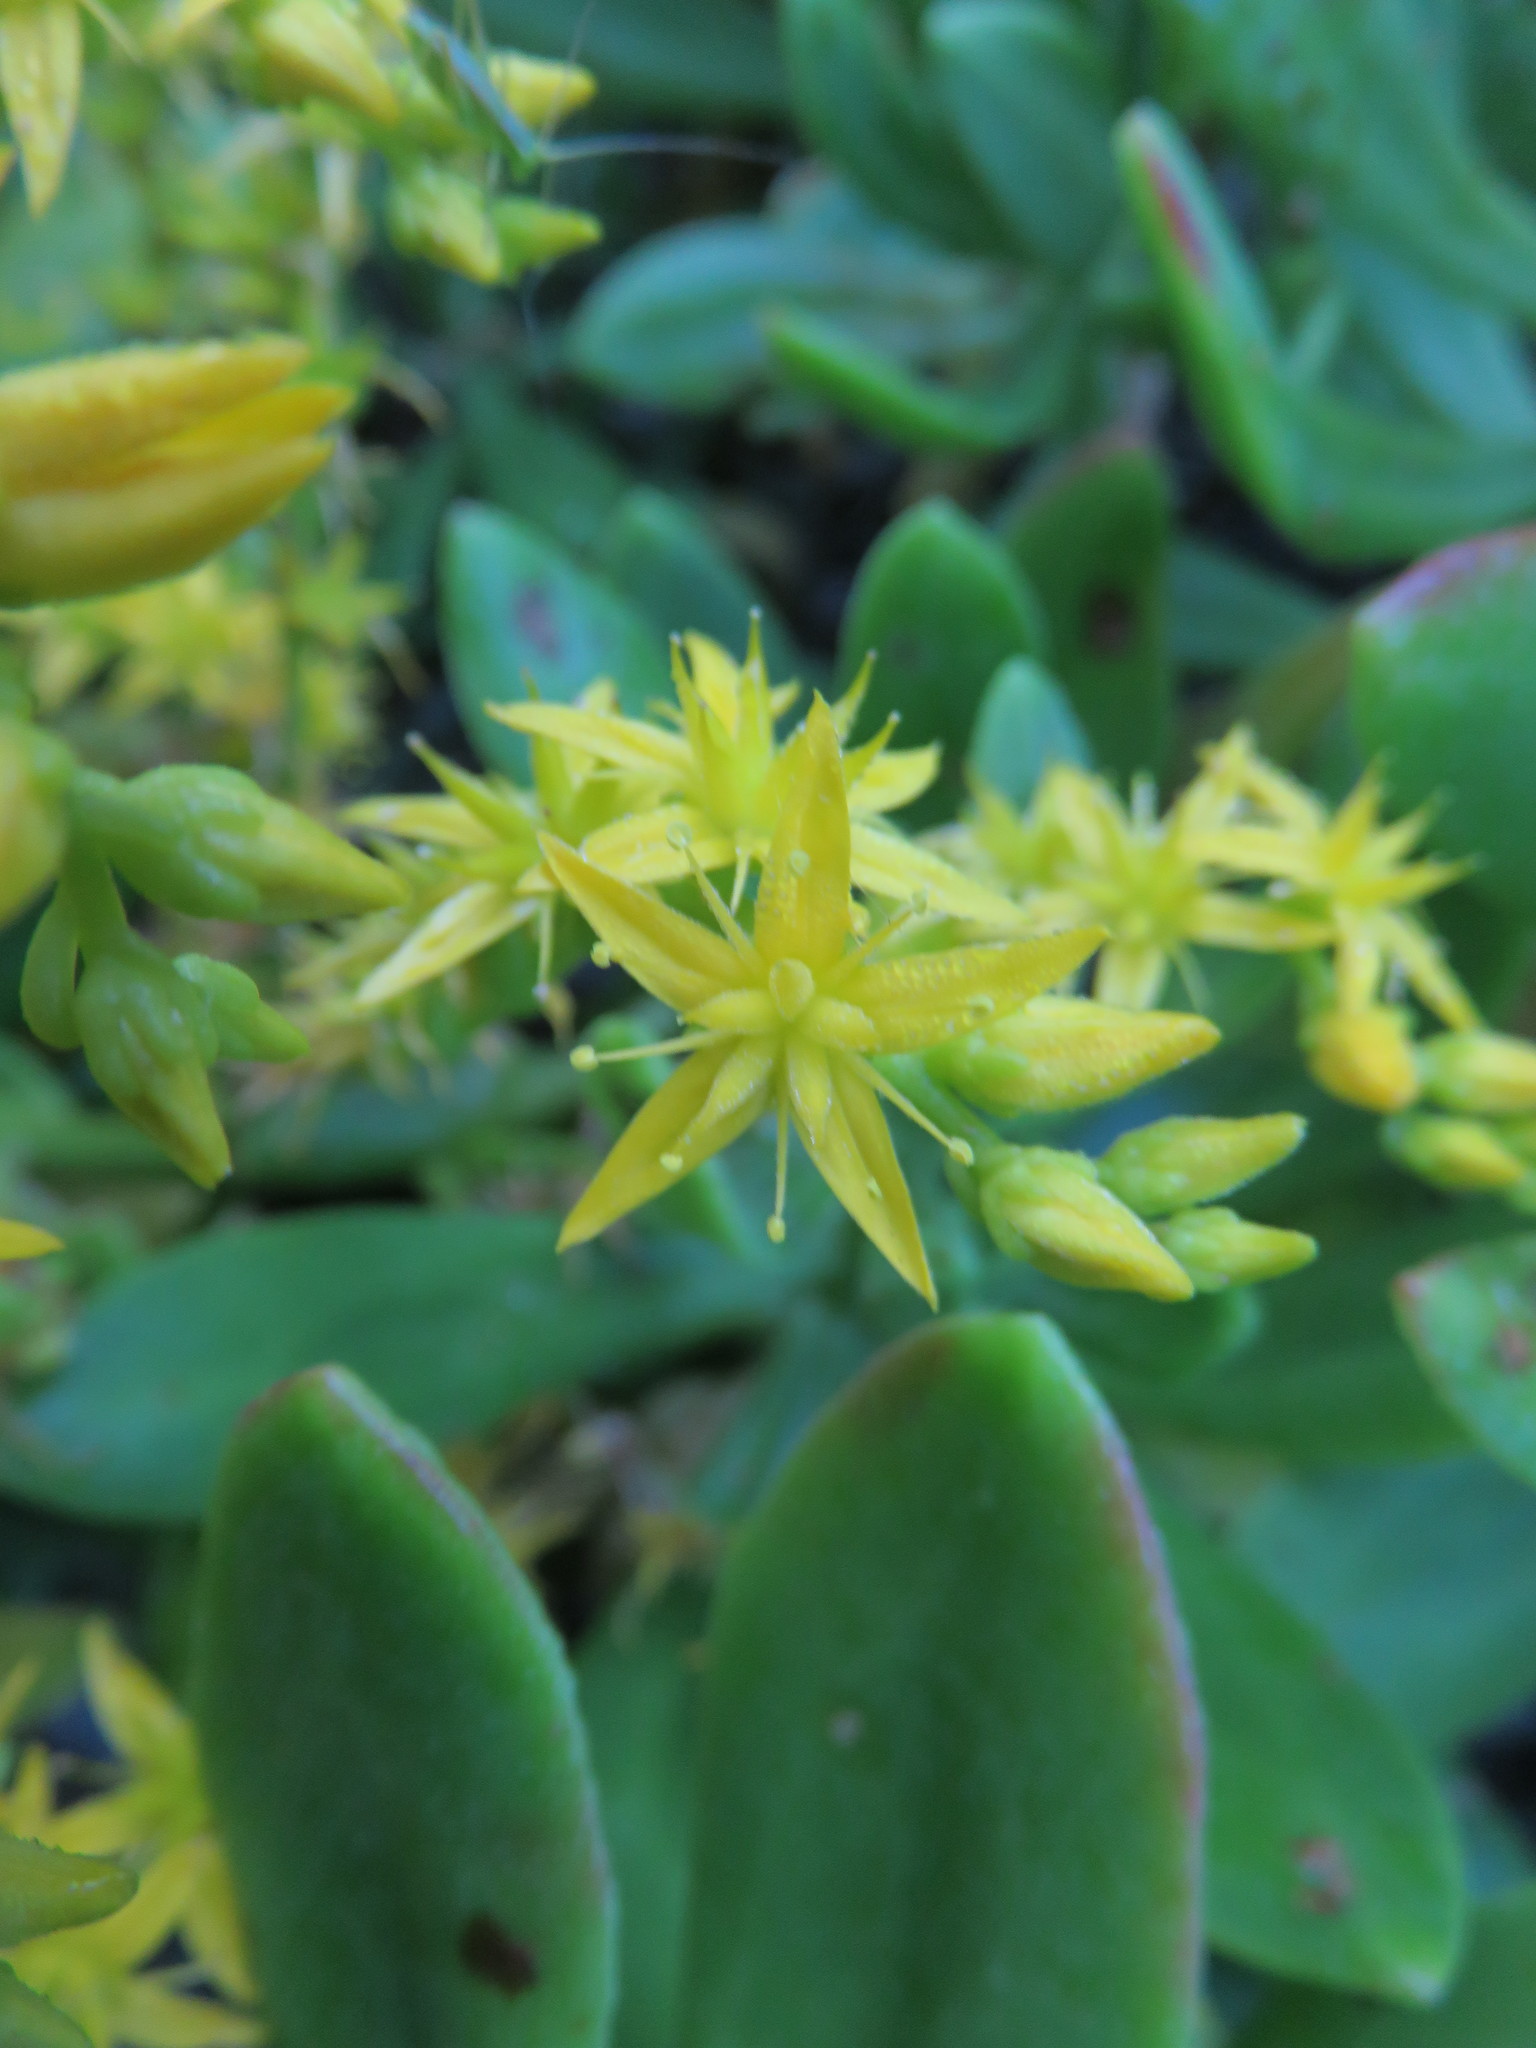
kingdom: Plantae
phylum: Tracheophyta
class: Magnoliopsida
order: Saxifragales
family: Crassulaceae
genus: Sedum
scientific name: Sedum praealtum
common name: Greater mexican-stonecrop
